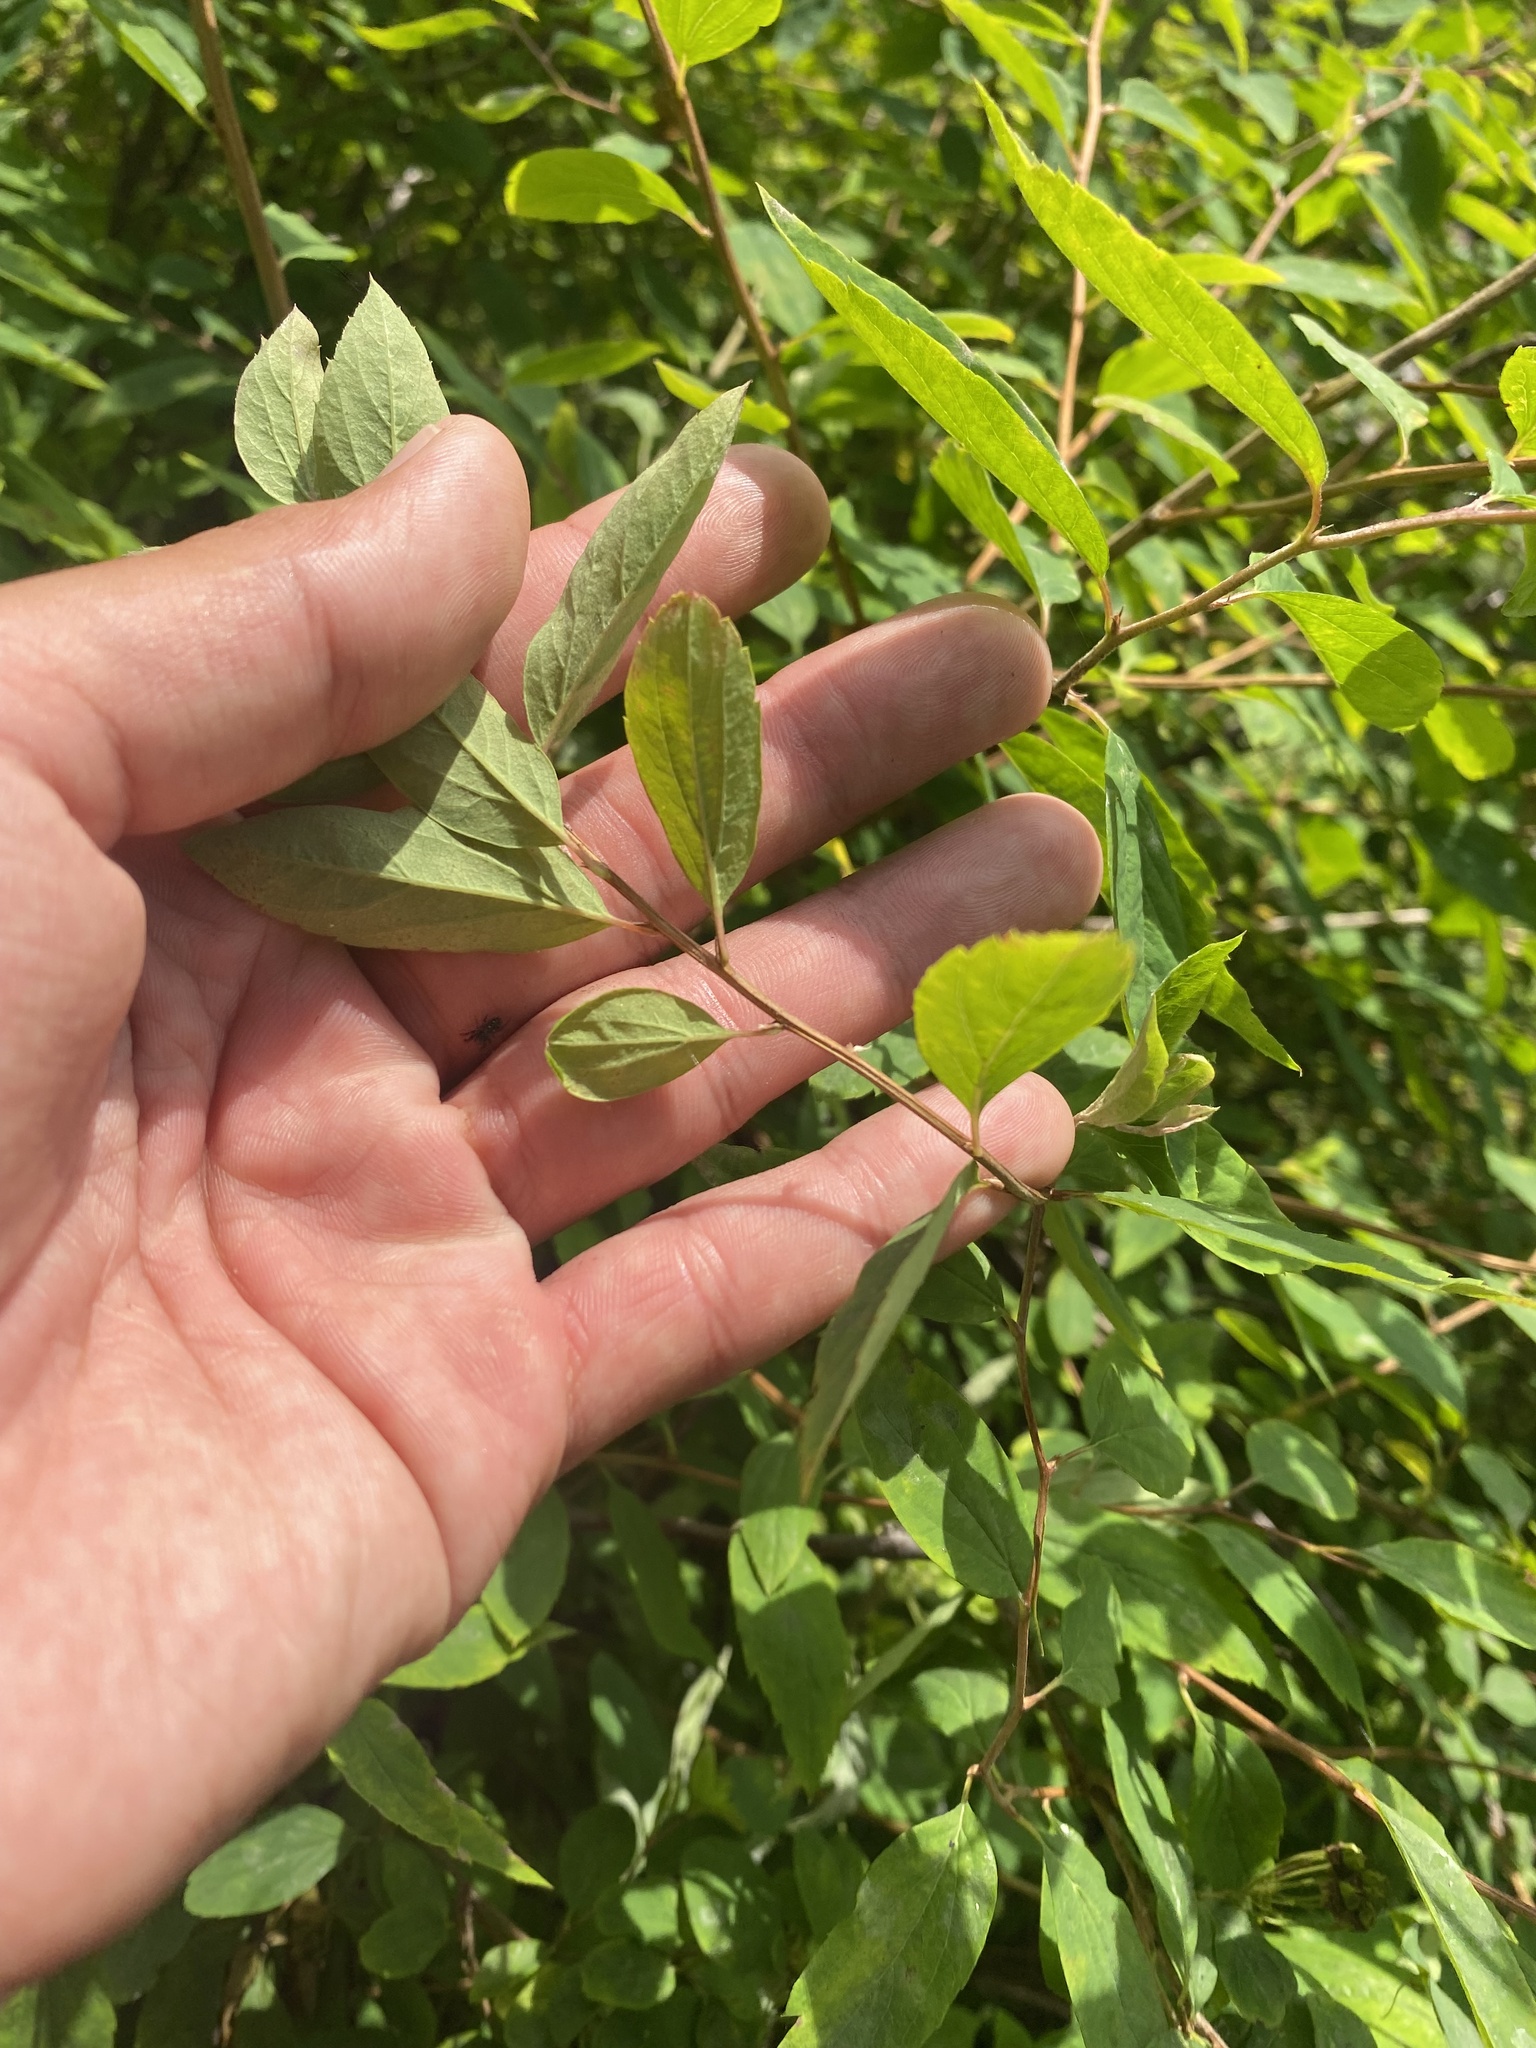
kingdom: Plantae
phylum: Tracheophyta
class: Magnoliopsida
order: Rosales
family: Rosaceae
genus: Spiraea
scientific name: Spiraea flexuosa
